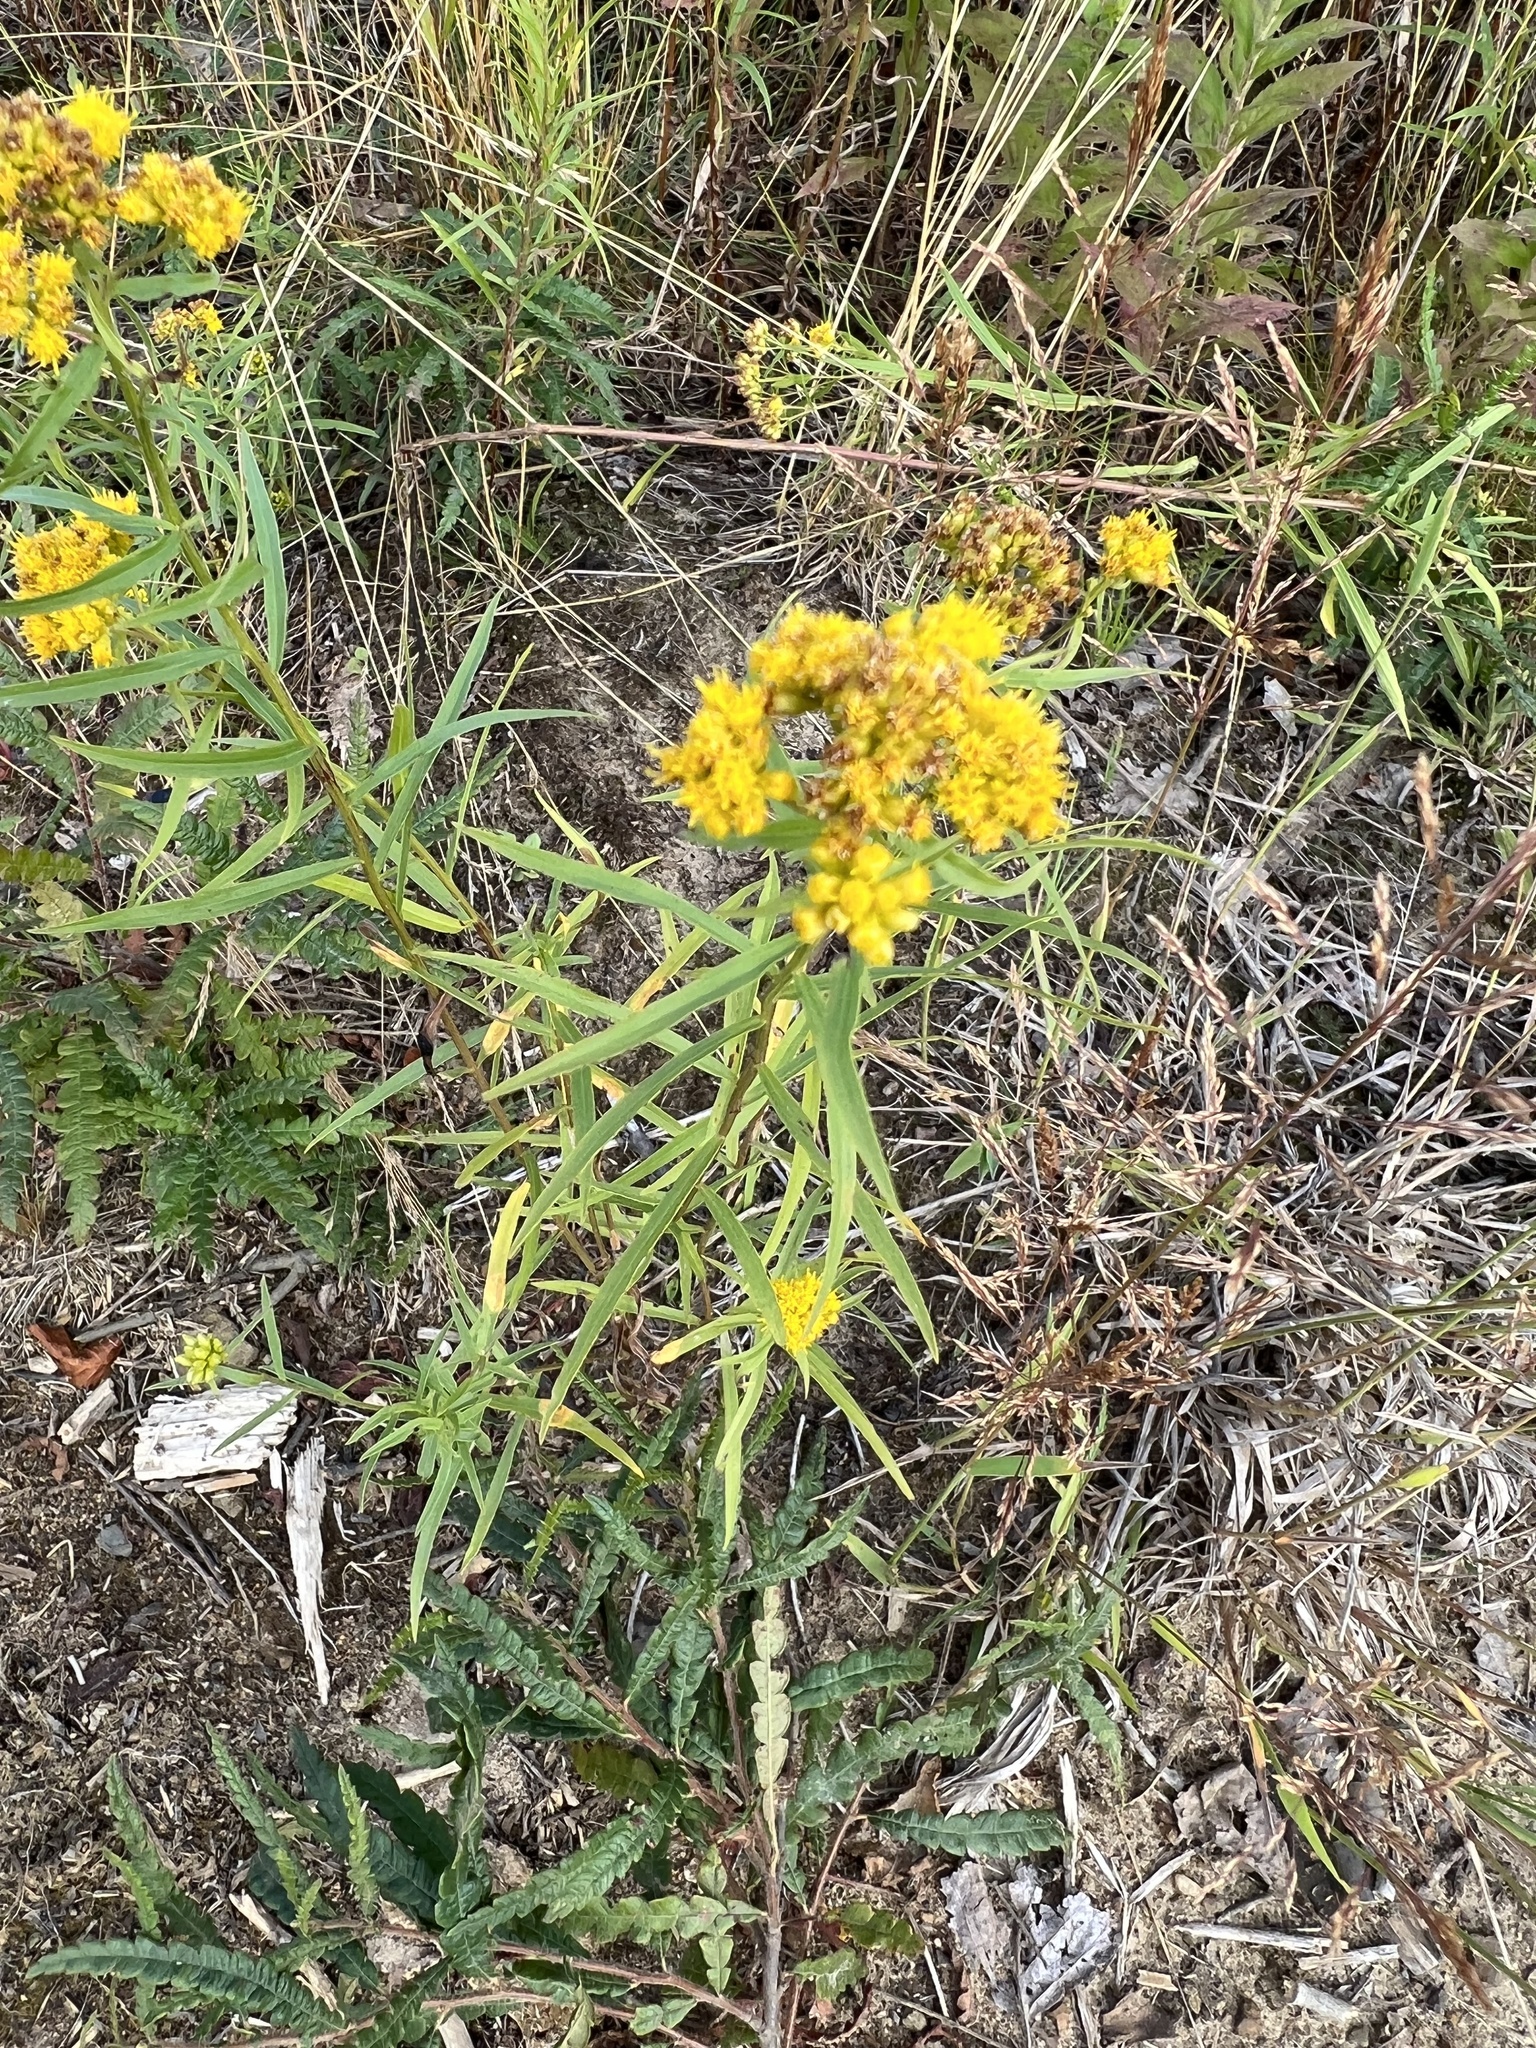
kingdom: Plantae
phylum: Tracheophyta
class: Magnoliopsida
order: Asterales
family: Asteraceae
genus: Euthamia
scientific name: Euthamia graminifolia
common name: Common goldentop
